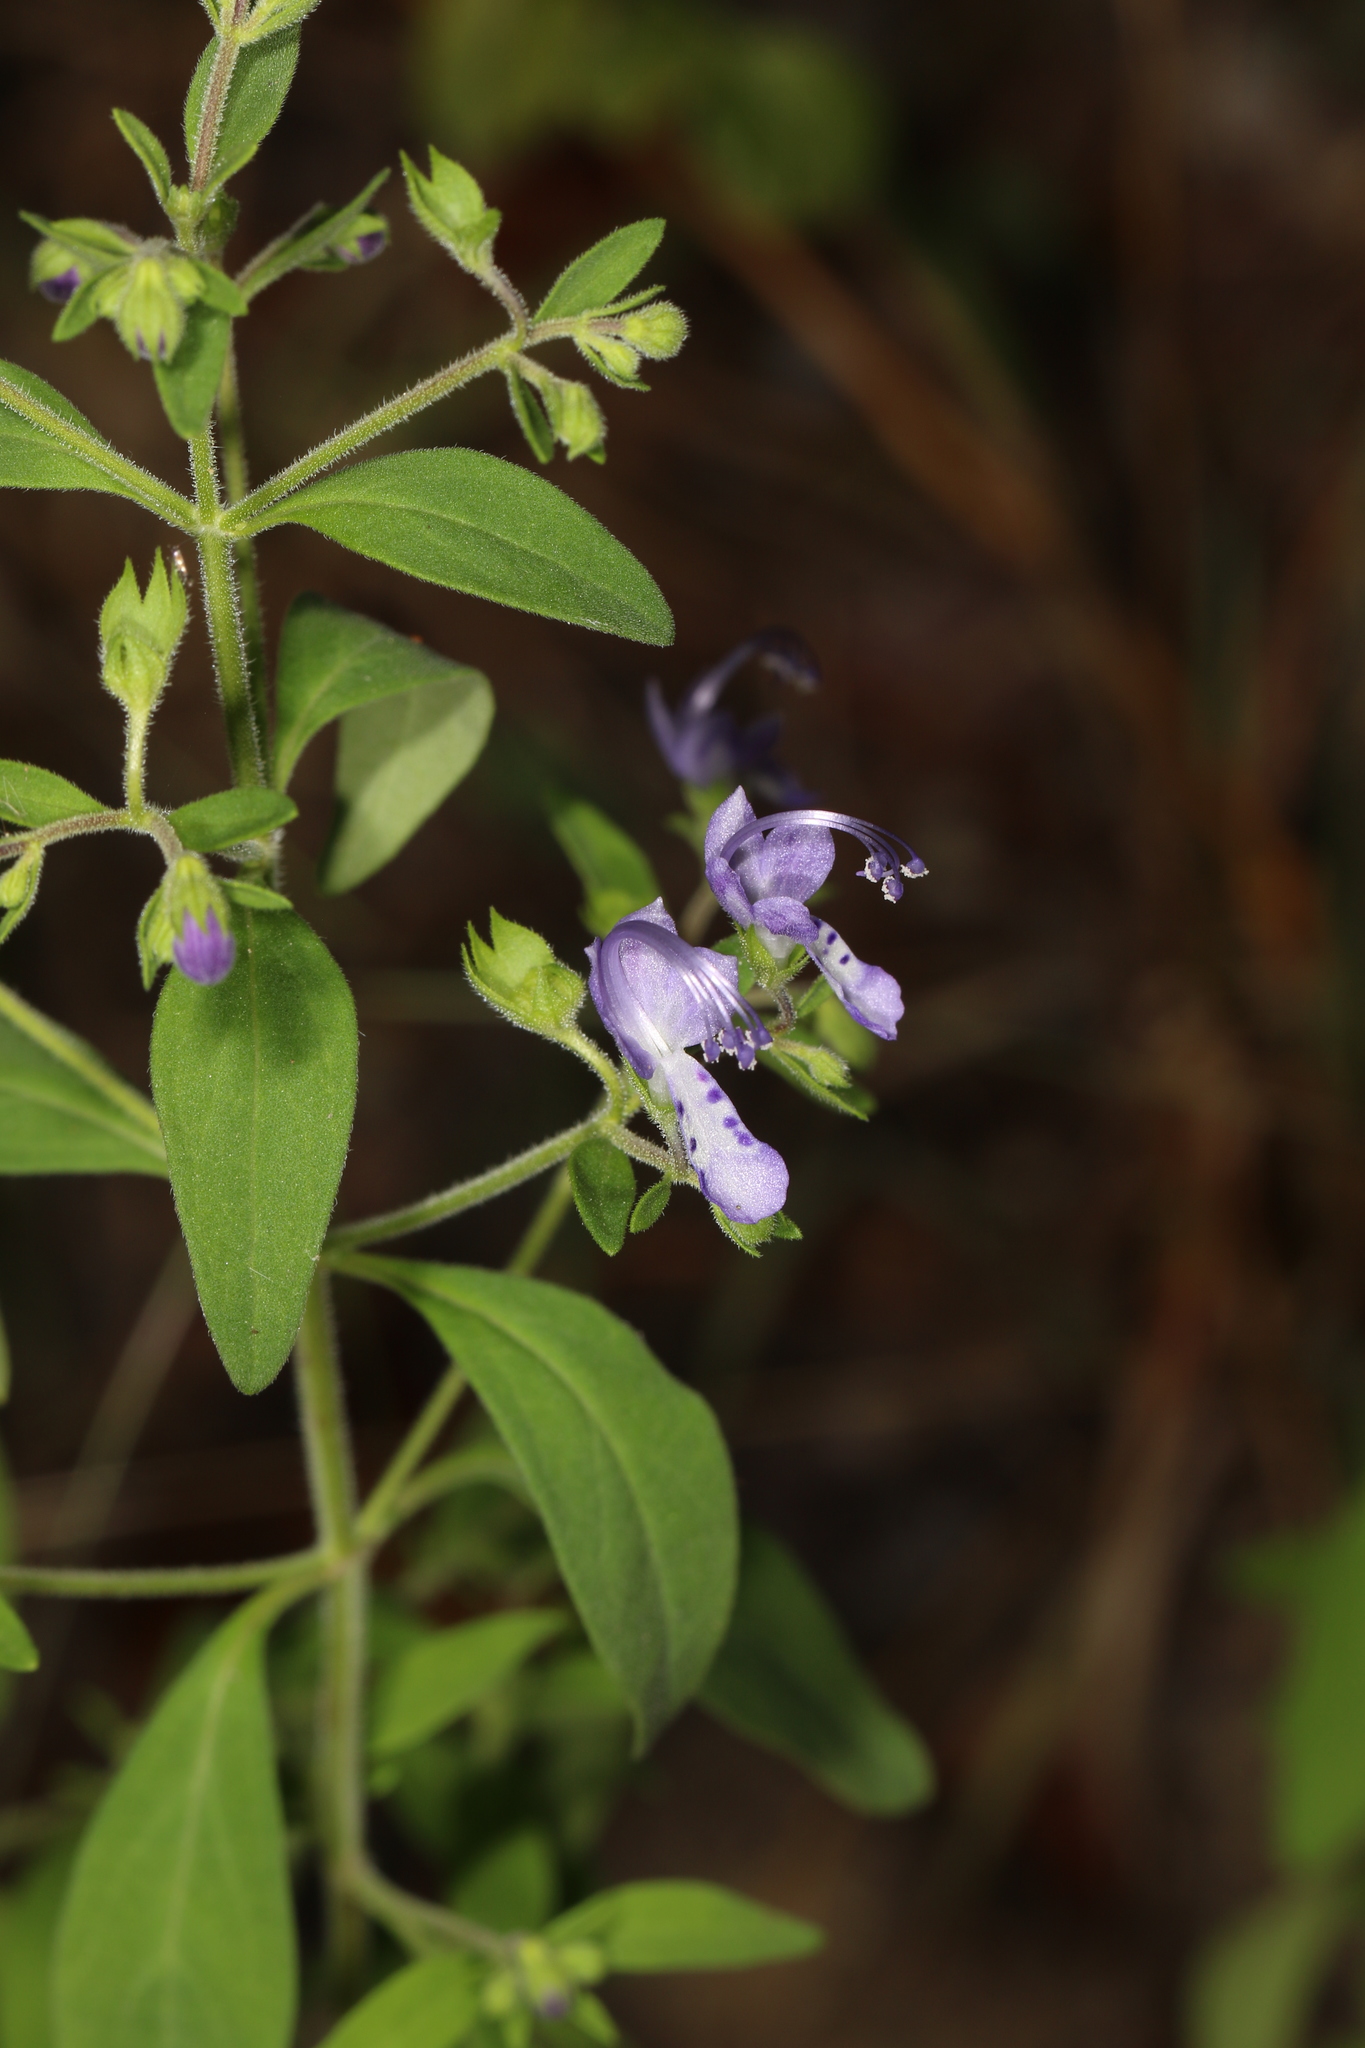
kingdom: Plantae
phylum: Tracheophyta
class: Magnoliopsida
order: Lamiales
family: Lamiaceae
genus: Trichostema
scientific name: Trichostema dichotomum
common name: Bastard pennyroyal
